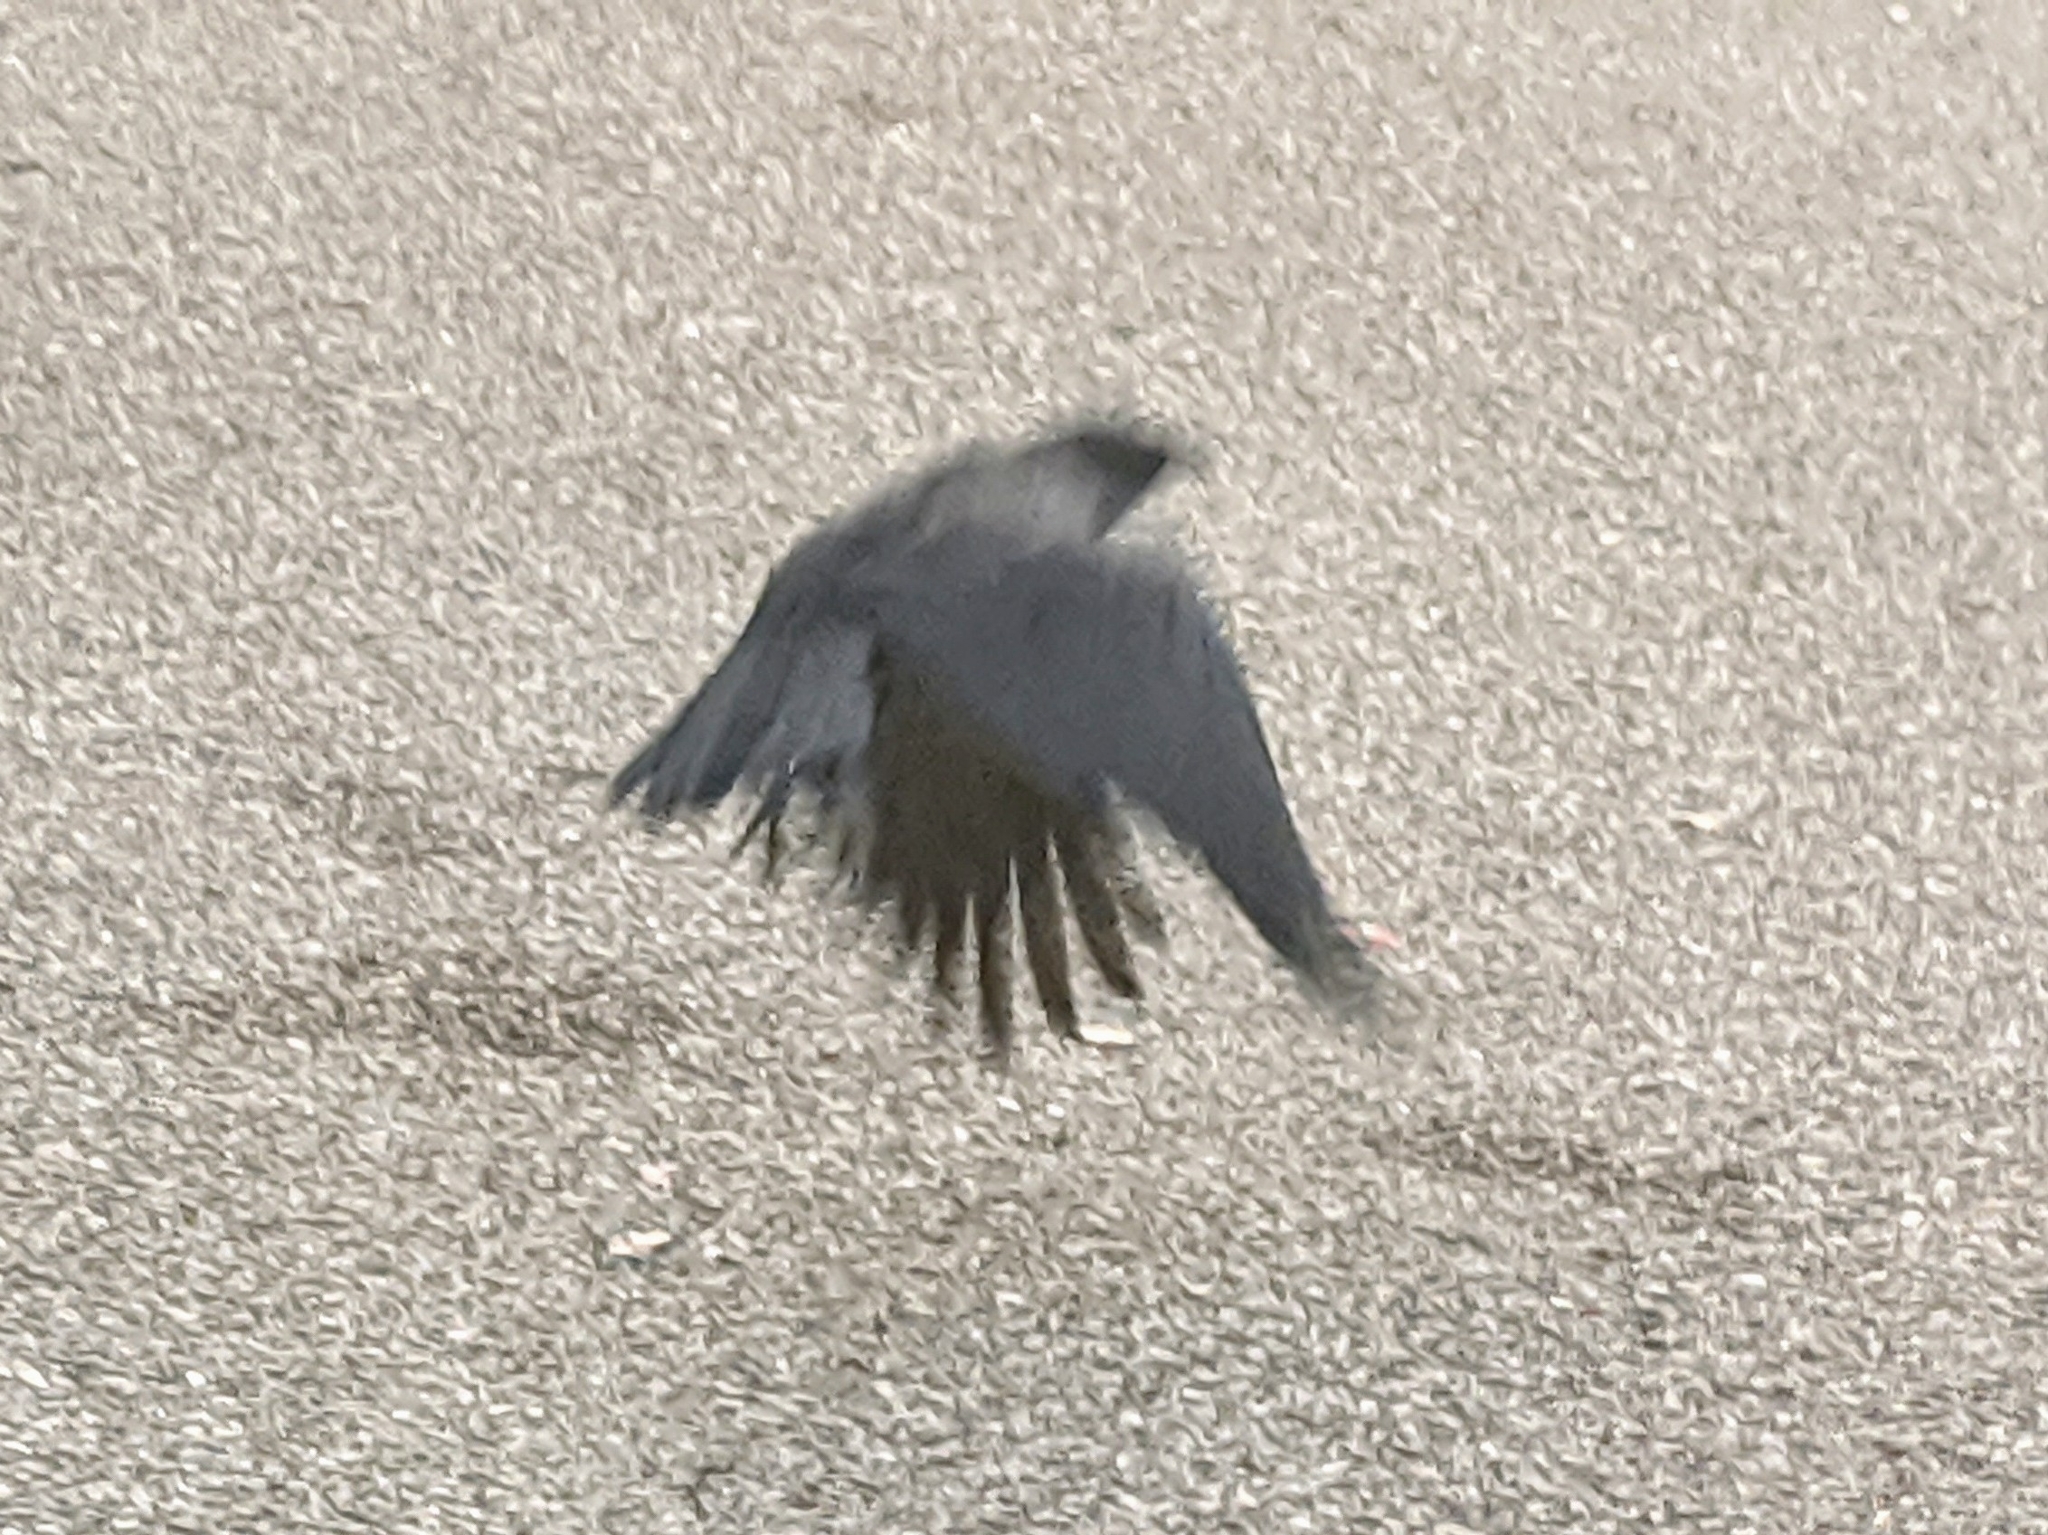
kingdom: Animalia
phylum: Chordata
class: Aves
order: Passeriformes
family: Corvidae
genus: Corvus
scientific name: Corvus brachyrhynchos
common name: American crow
